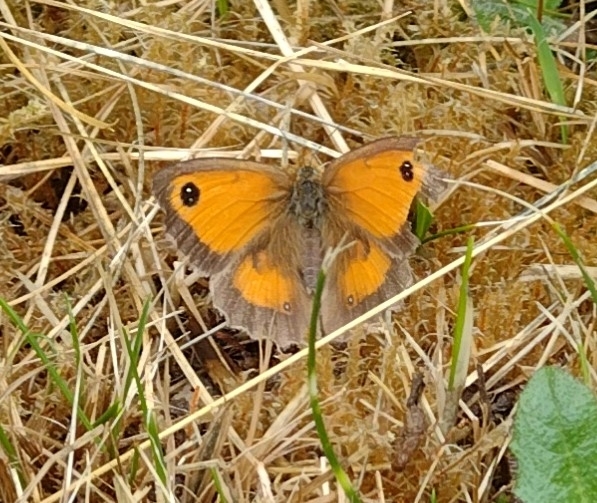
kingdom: Animalia
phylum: Arthropoda
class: Insecta
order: Lepidoptera
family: Nymphalidae
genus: Pyronia
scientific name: Pyronia tithonus
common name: Gatekeeper
